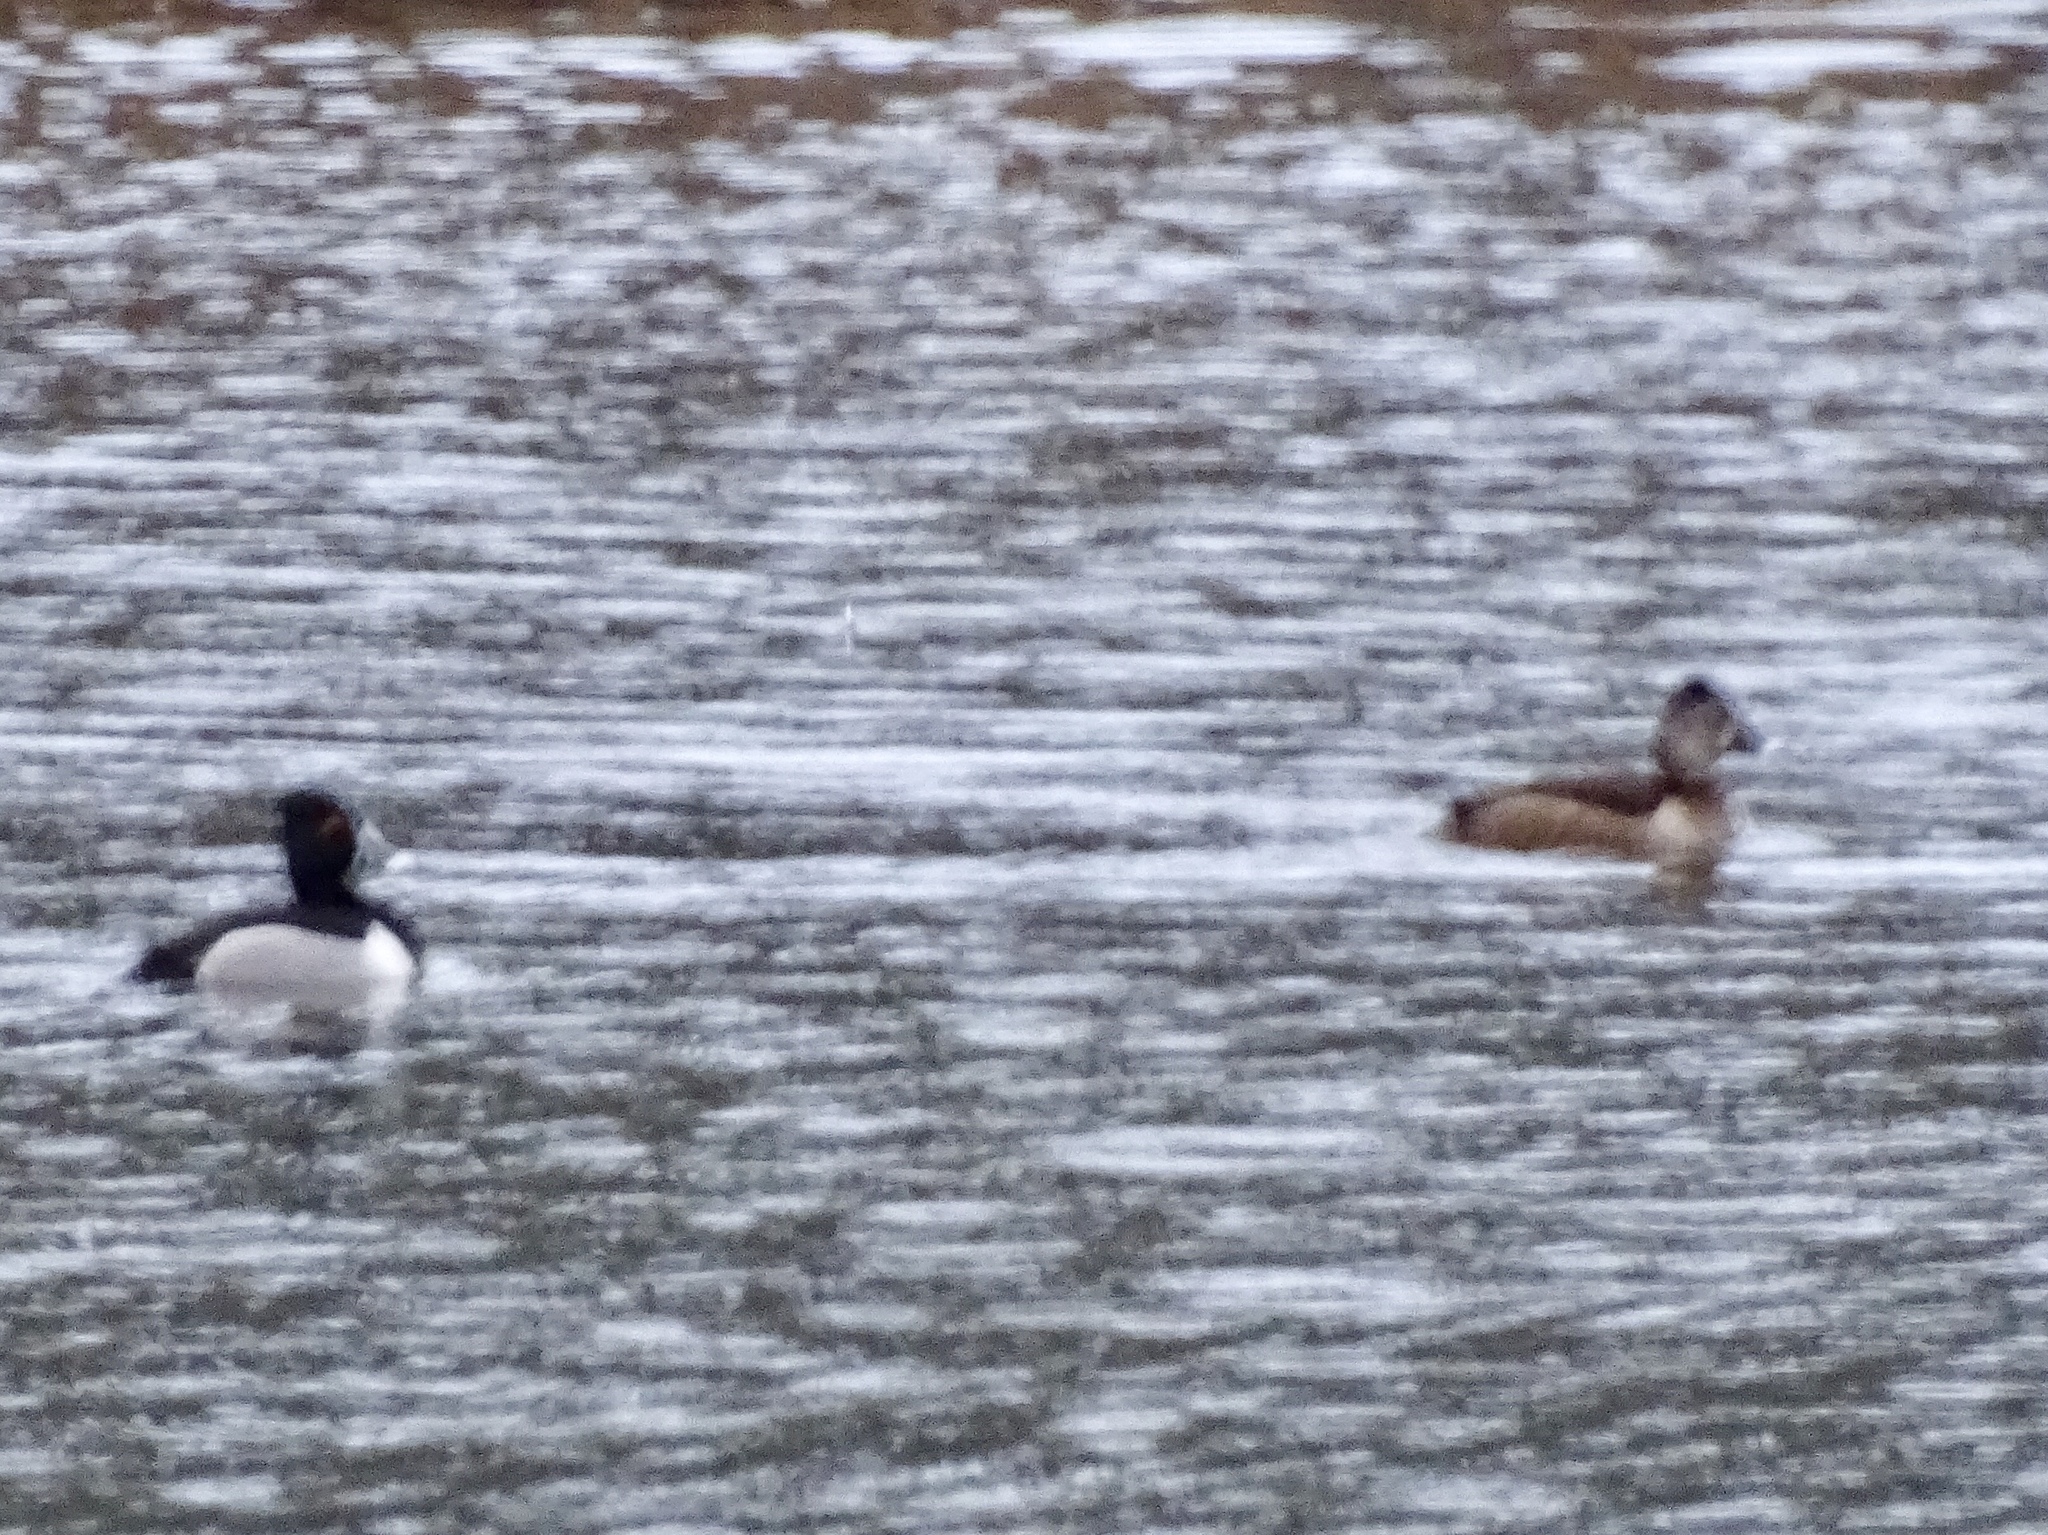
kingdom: Animalia
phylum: Chordata
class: Aves
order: Anseriformes
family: Anatidae
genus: Aythya
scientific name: Aythya collaris
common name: Ring-necked duck
